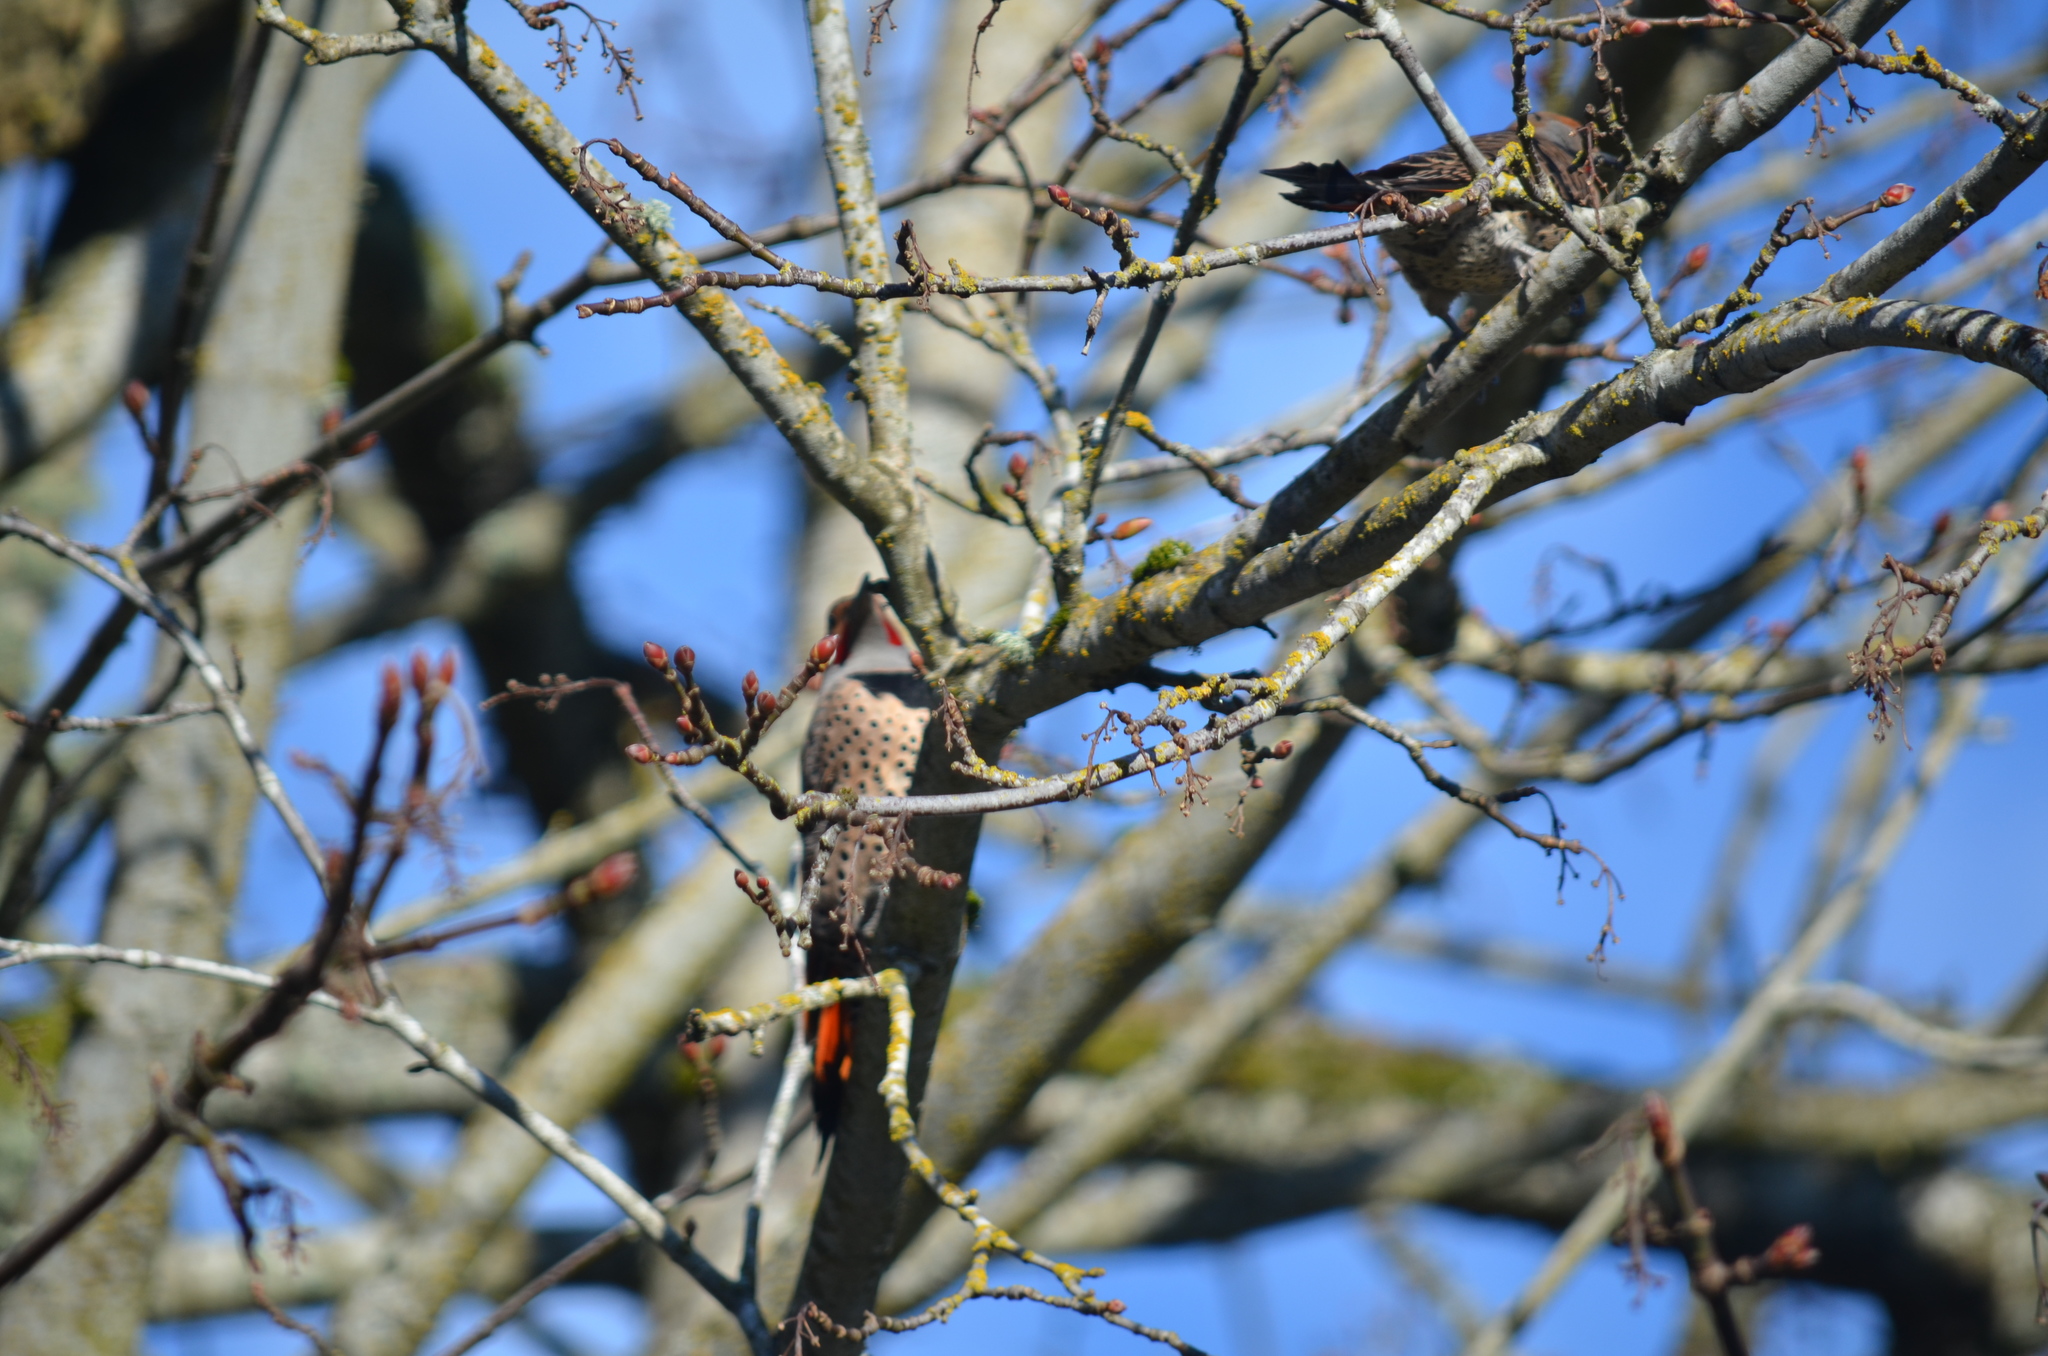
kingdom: Animalia
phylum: Chordata
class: Aves
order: Piciformes
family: Picidae
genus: Colaptes
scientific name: Colaptes auratus
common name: Northern flicker
